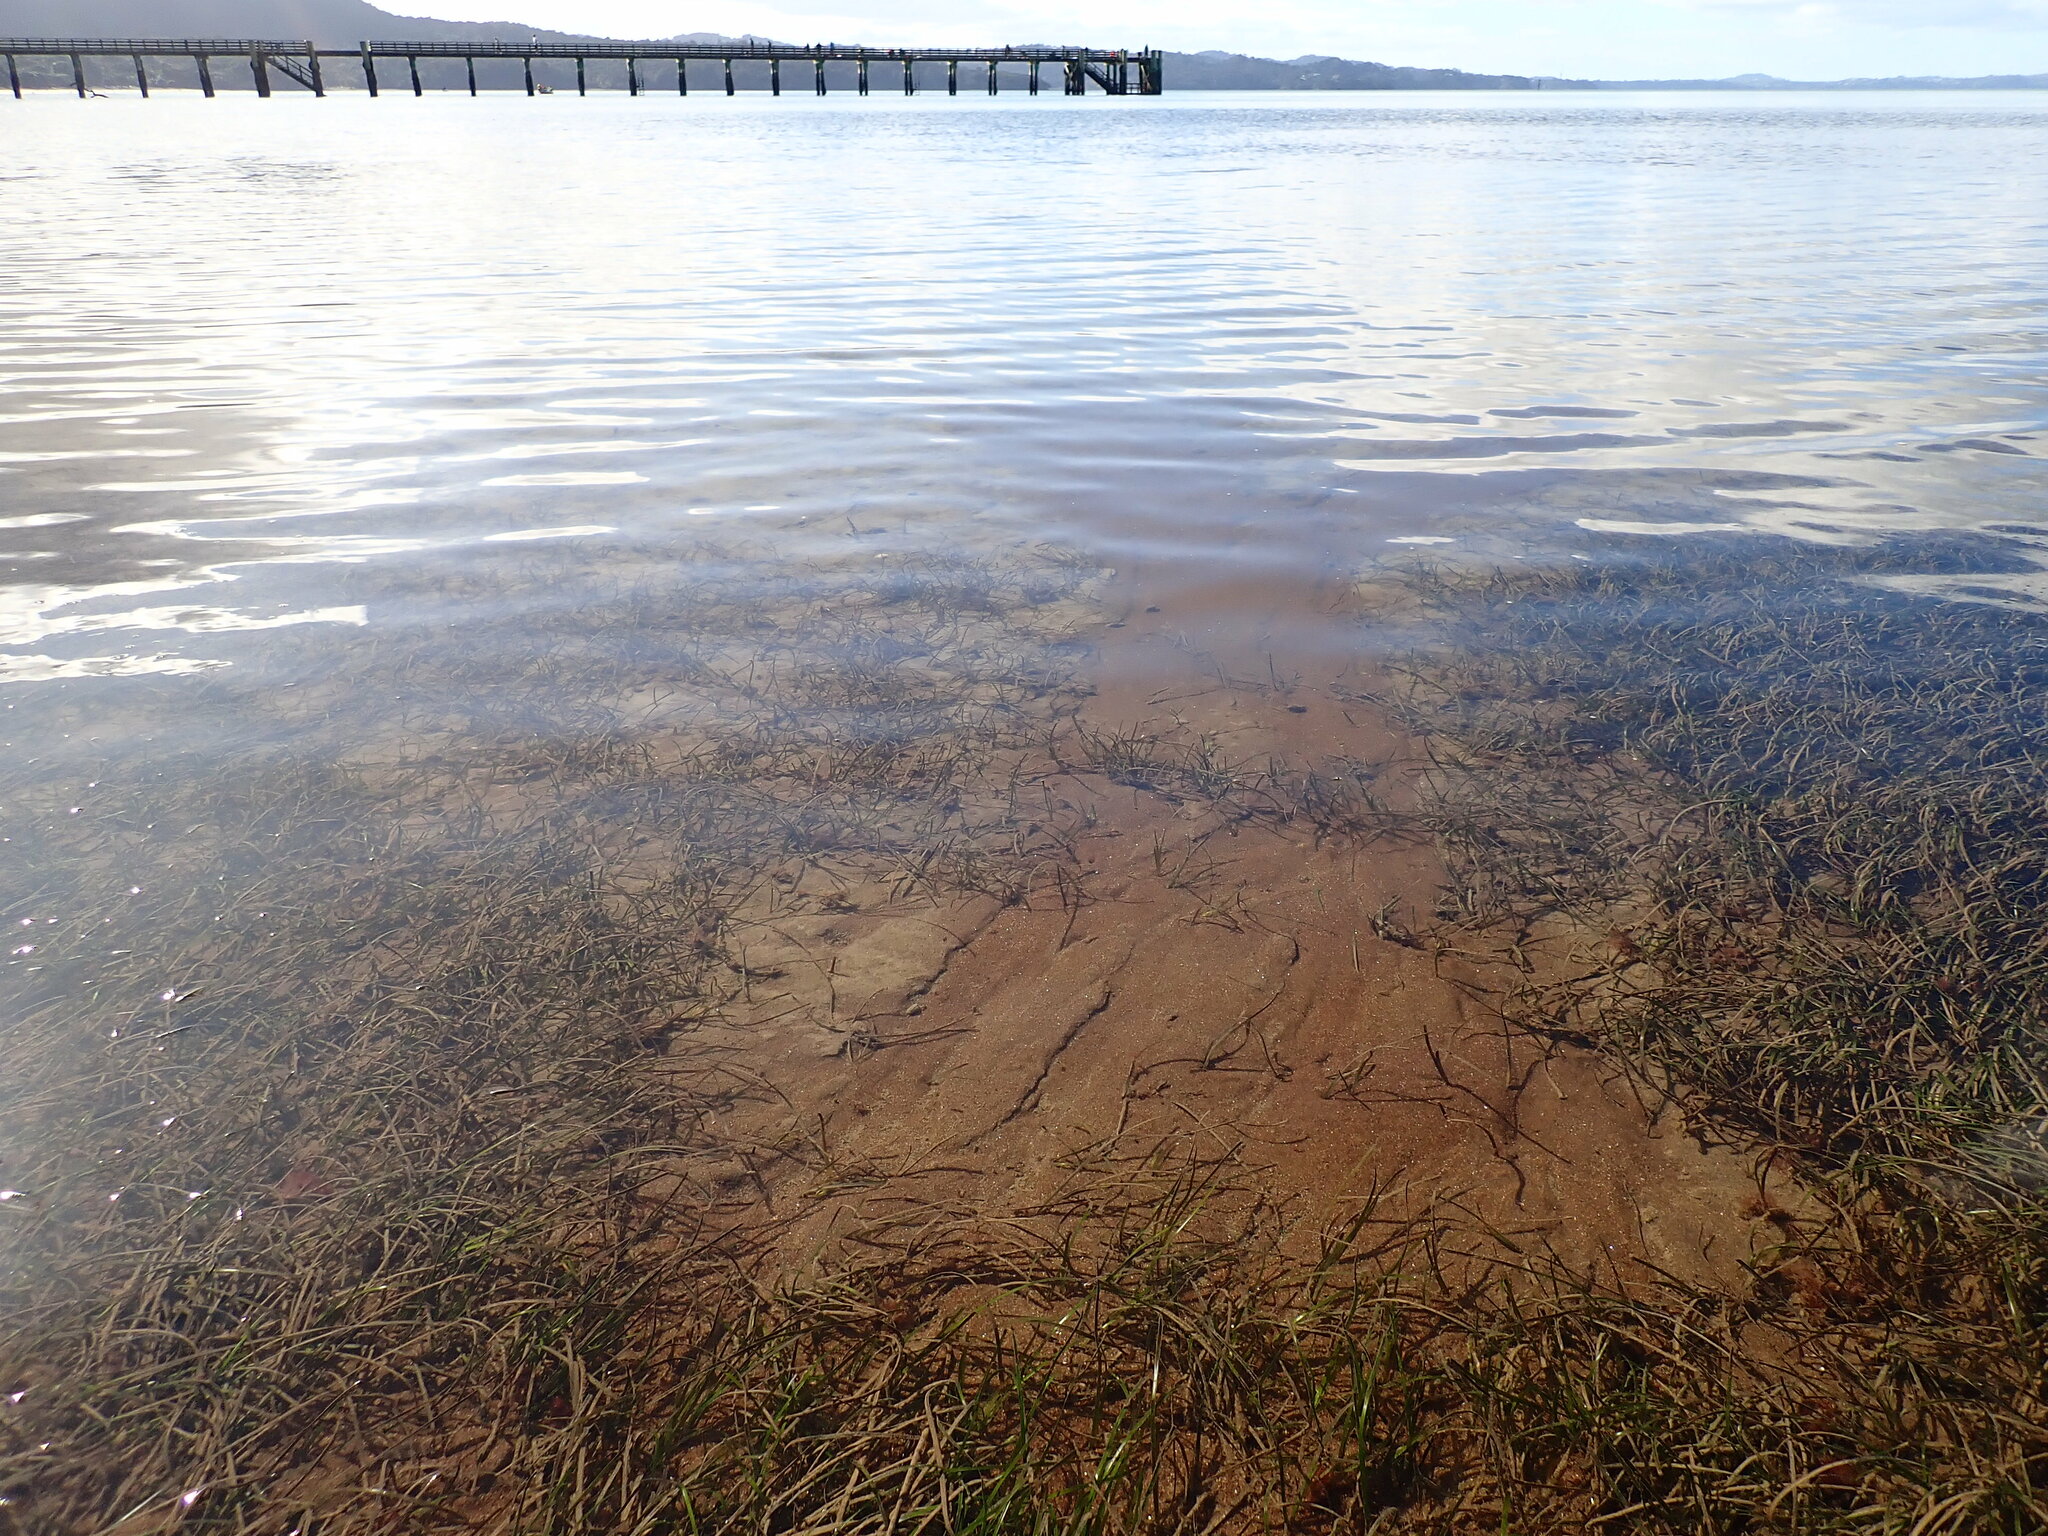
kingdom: Plantae
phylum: Tracheophyta
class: Liliopsida
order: Alismatales
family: Zosteraceae
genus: Zostera
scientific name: Zostera novazelandica
